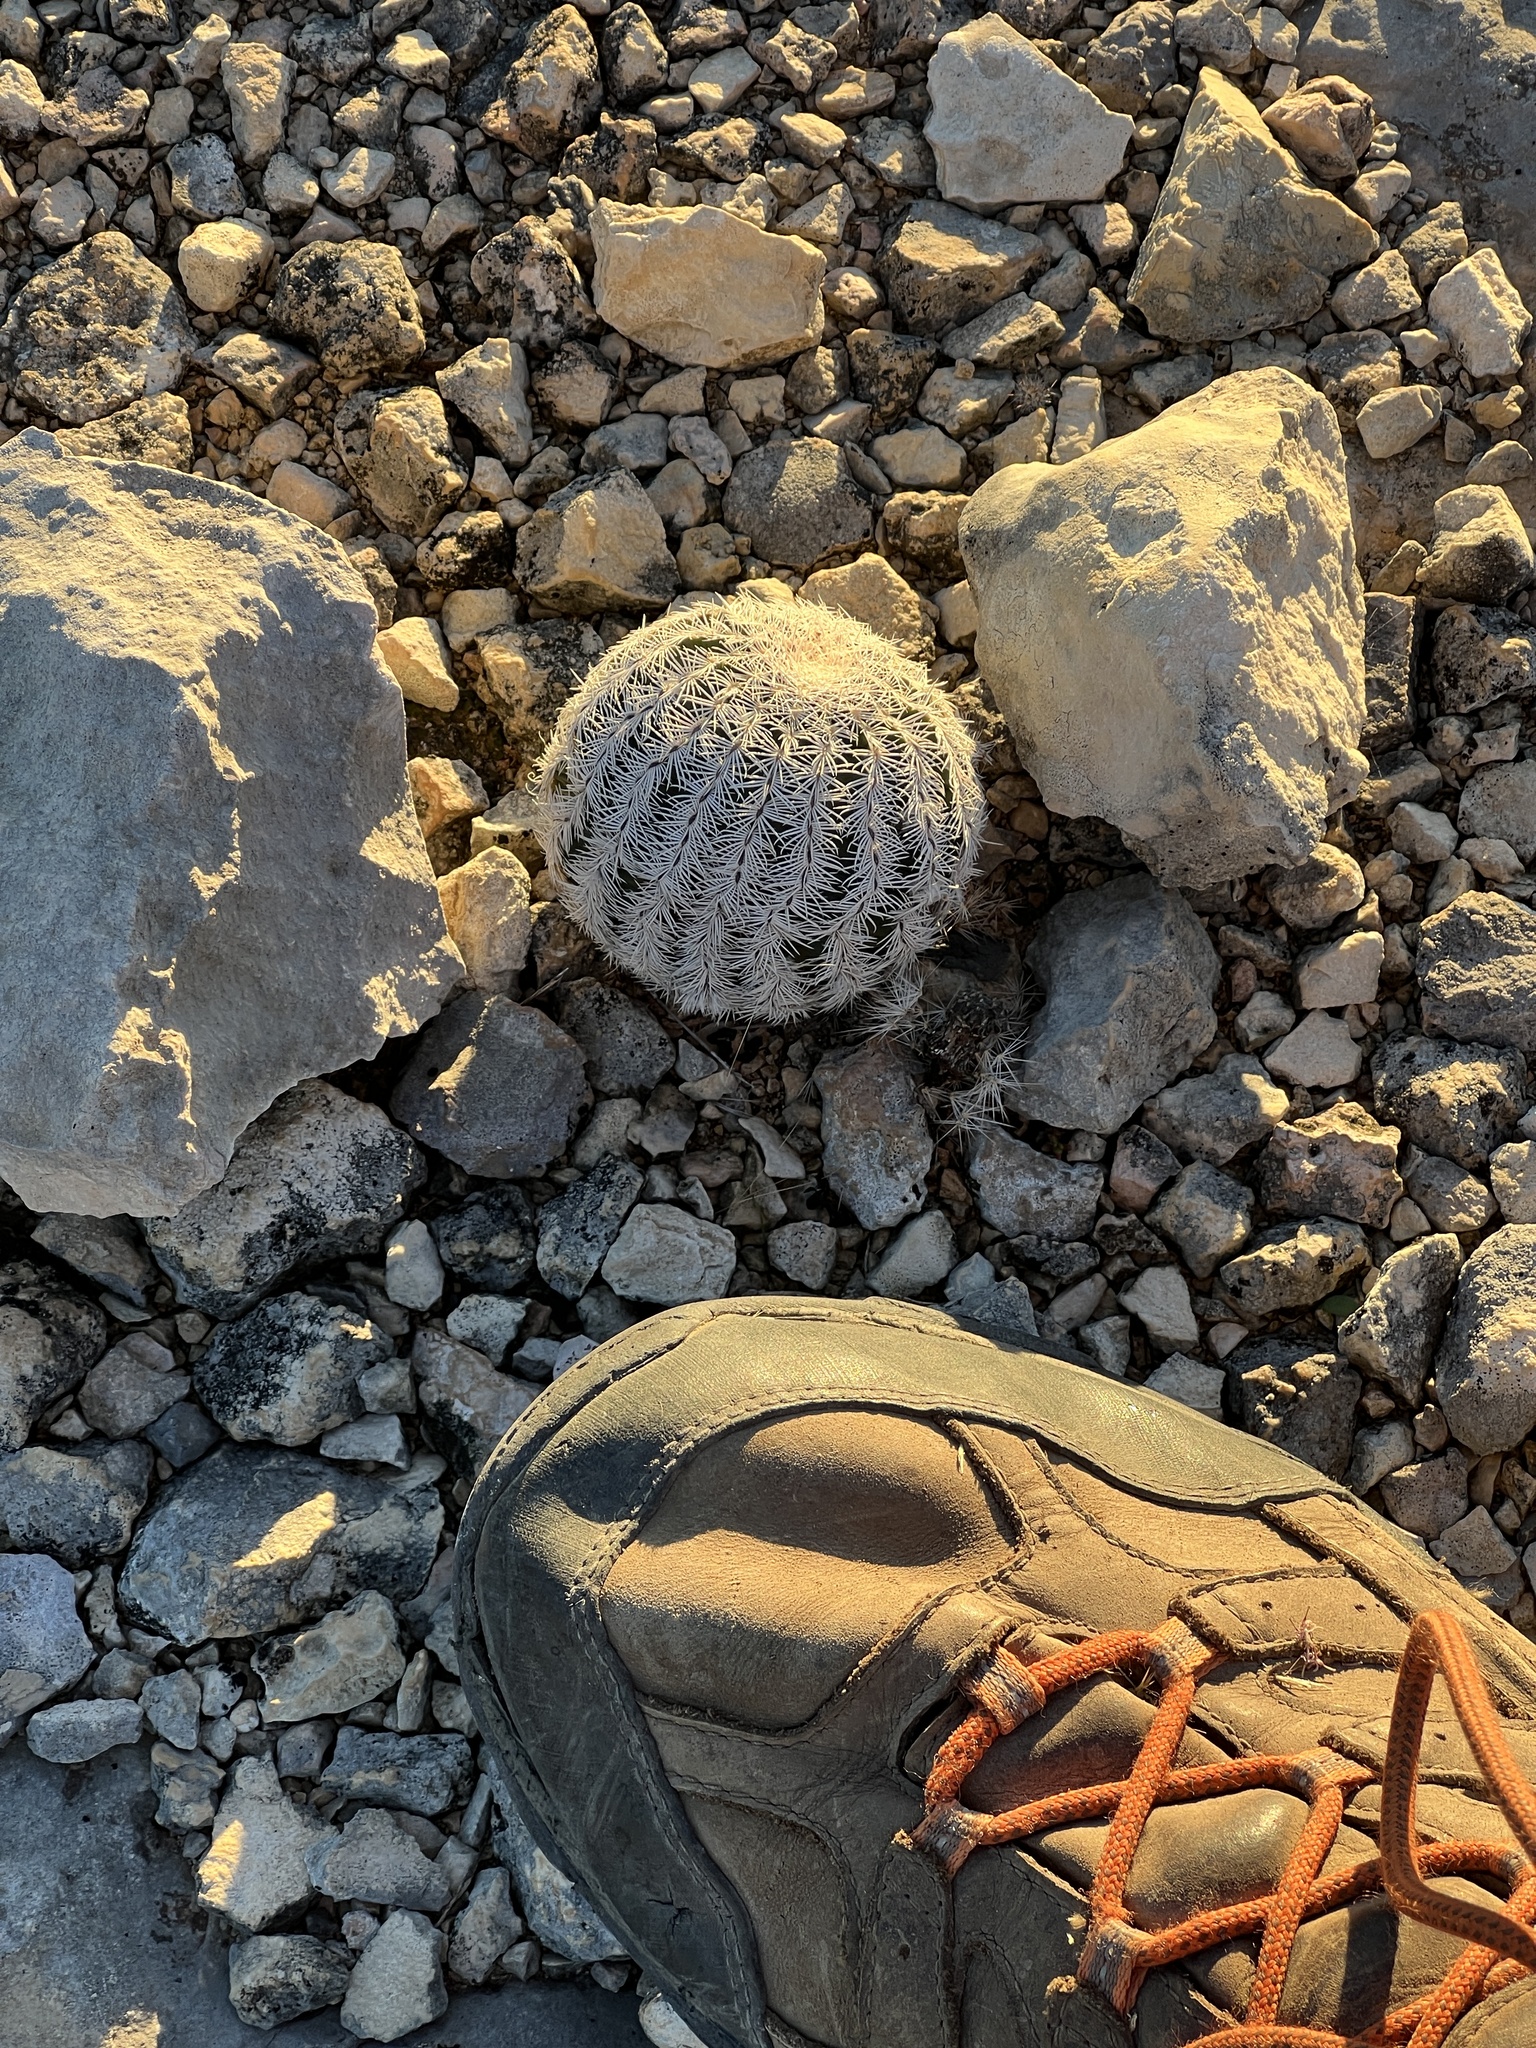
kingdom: Plantae
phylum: Tracheophyta
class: Magnoliopsida
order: Caryophyllales
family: Cactaceae
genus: Echinocereus
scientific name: Echinocereus reichenbachii
